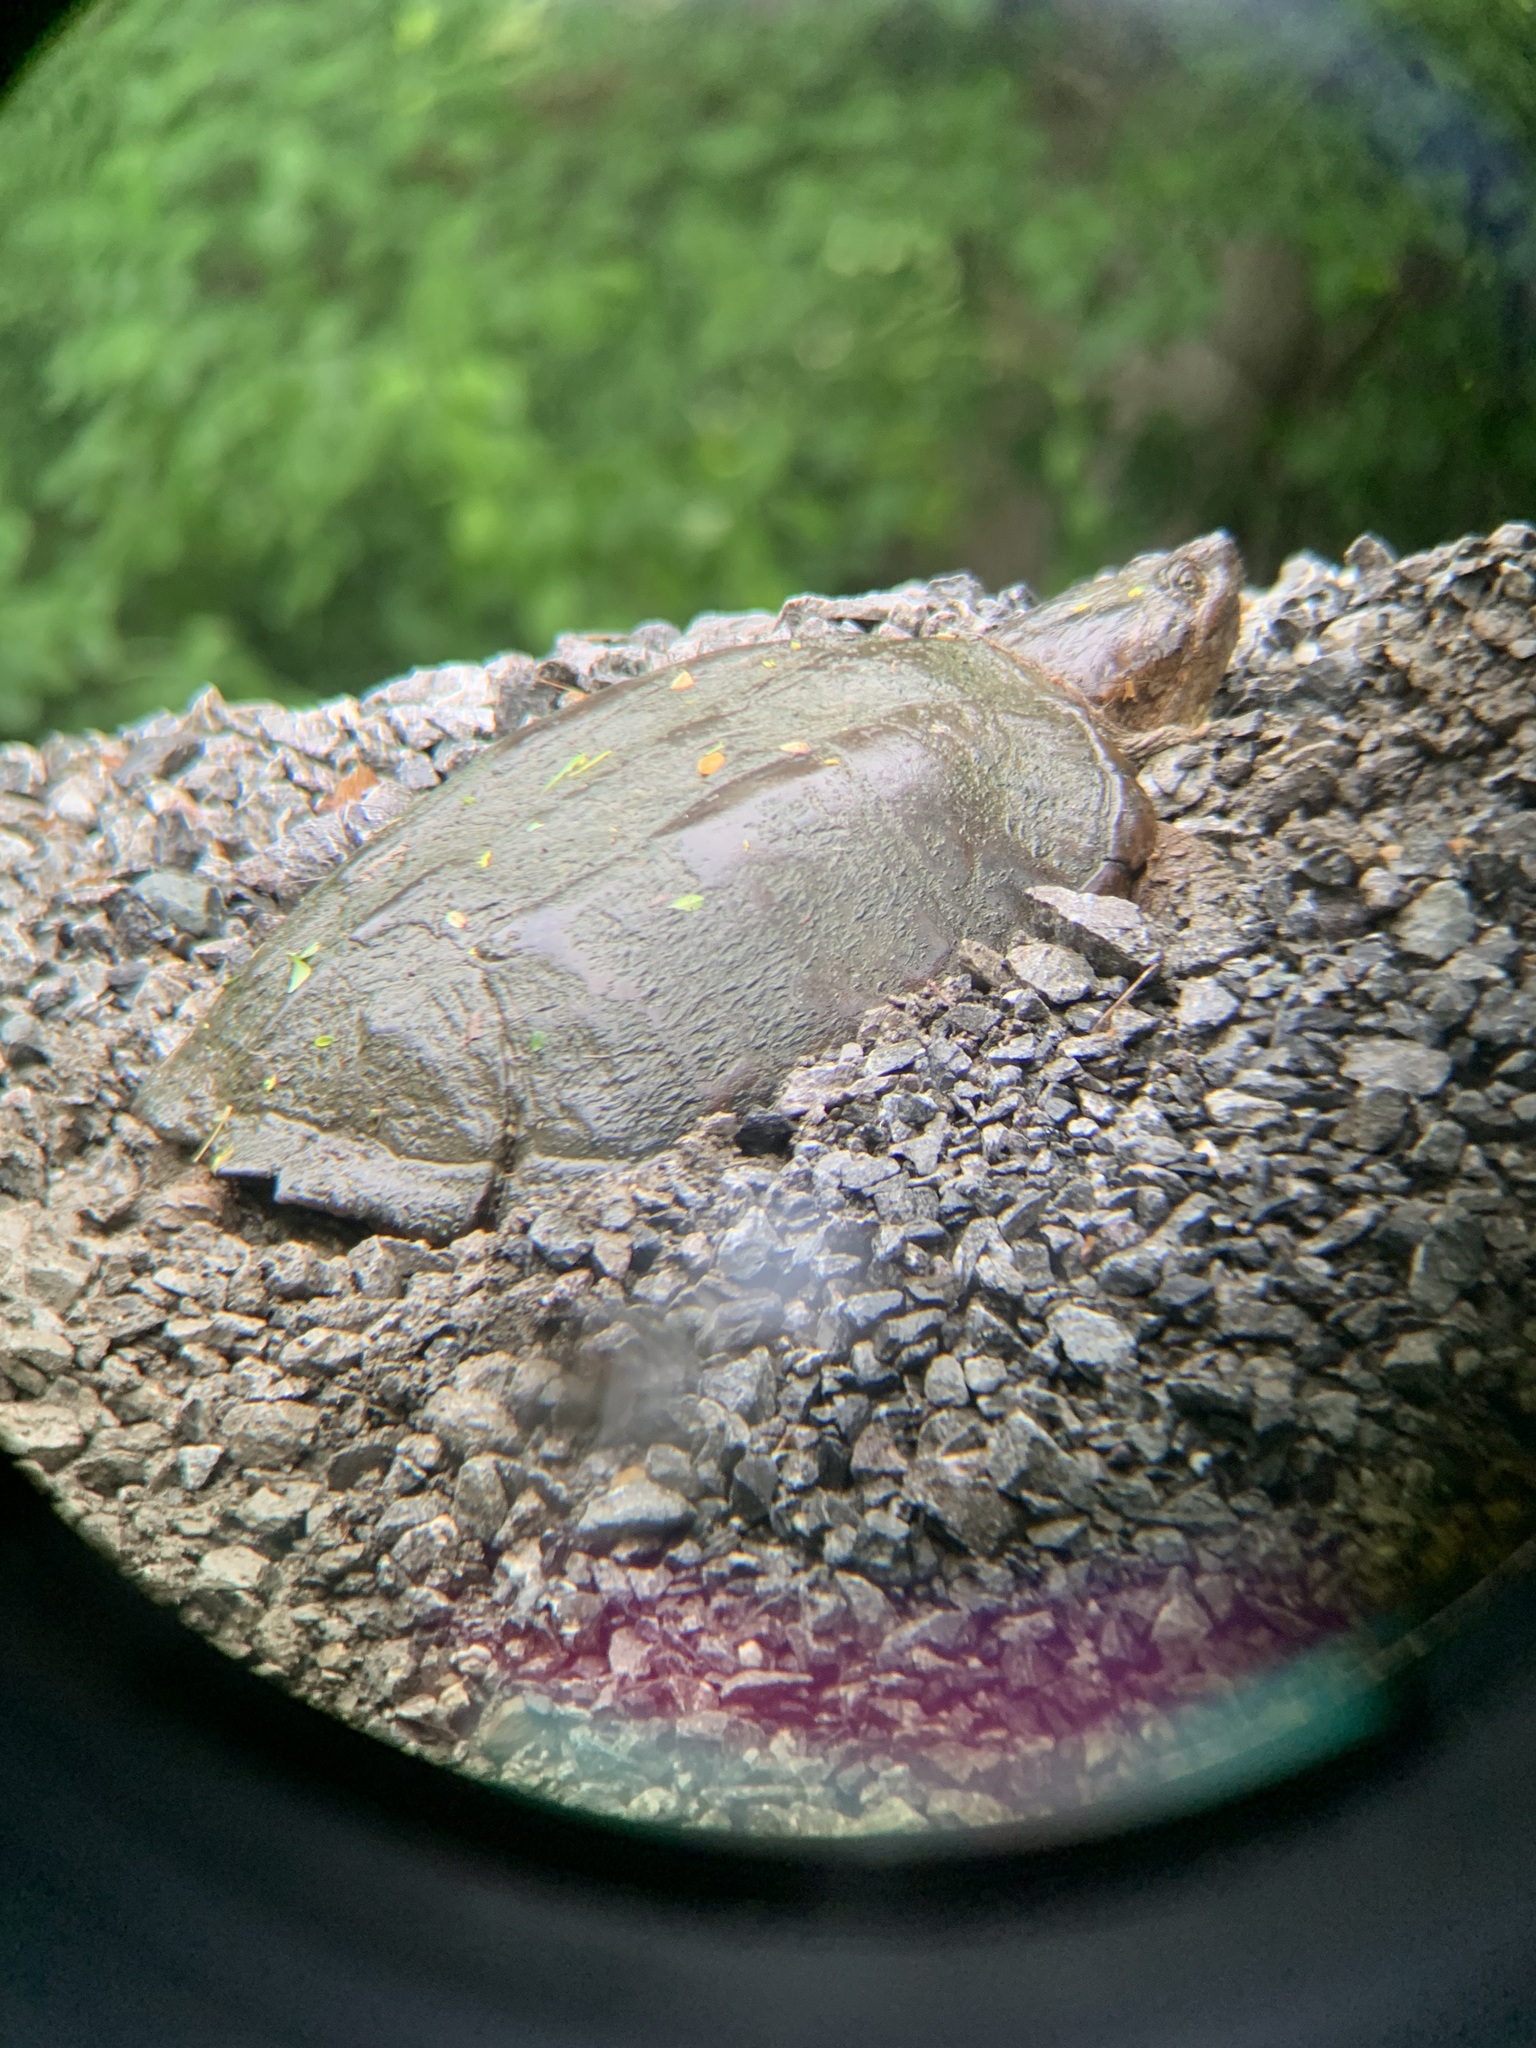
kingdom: Animalia
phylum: Chordata
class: Testudines
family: Chelydridae
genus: Chelydra
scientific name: Chelydra serpentina
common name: Common snapping turtle
